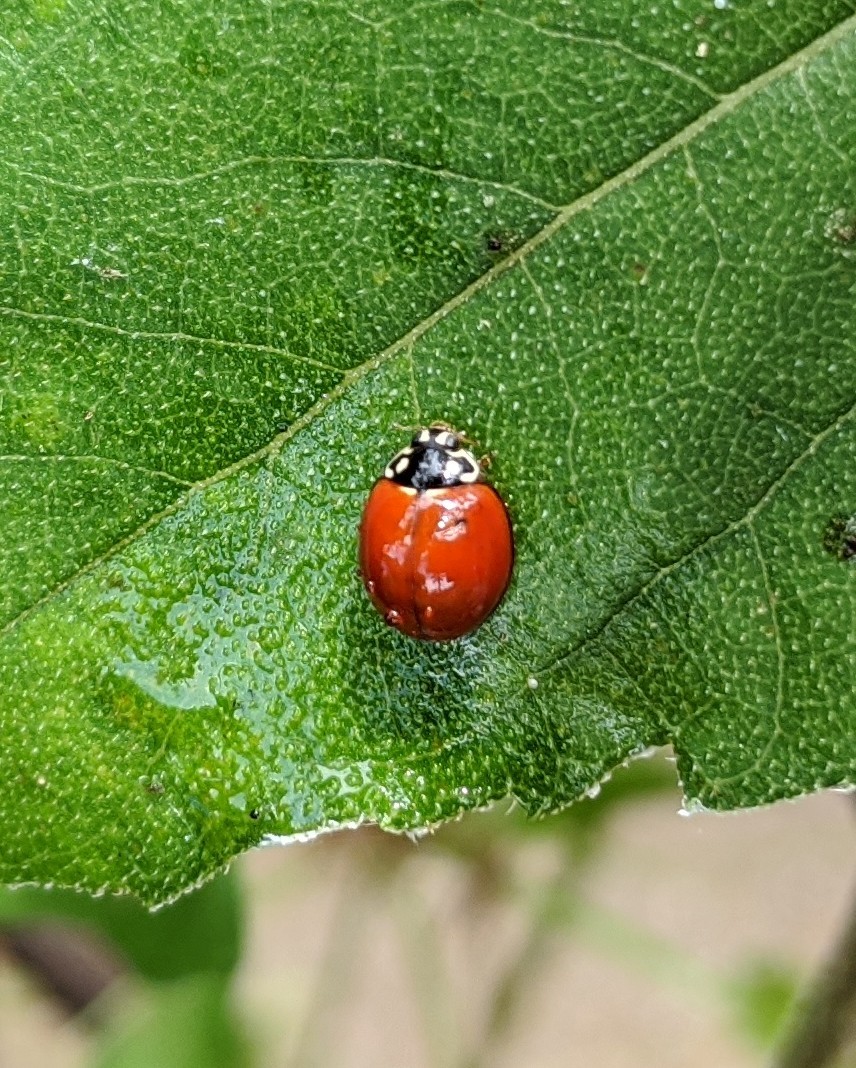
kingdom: Animalia
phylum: Arthropoda
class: Insecta
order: Coleoptera
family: Coccinellidae
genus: Cycloneda
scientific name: Cycloneda sanguinea
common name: Ladybird beetle
